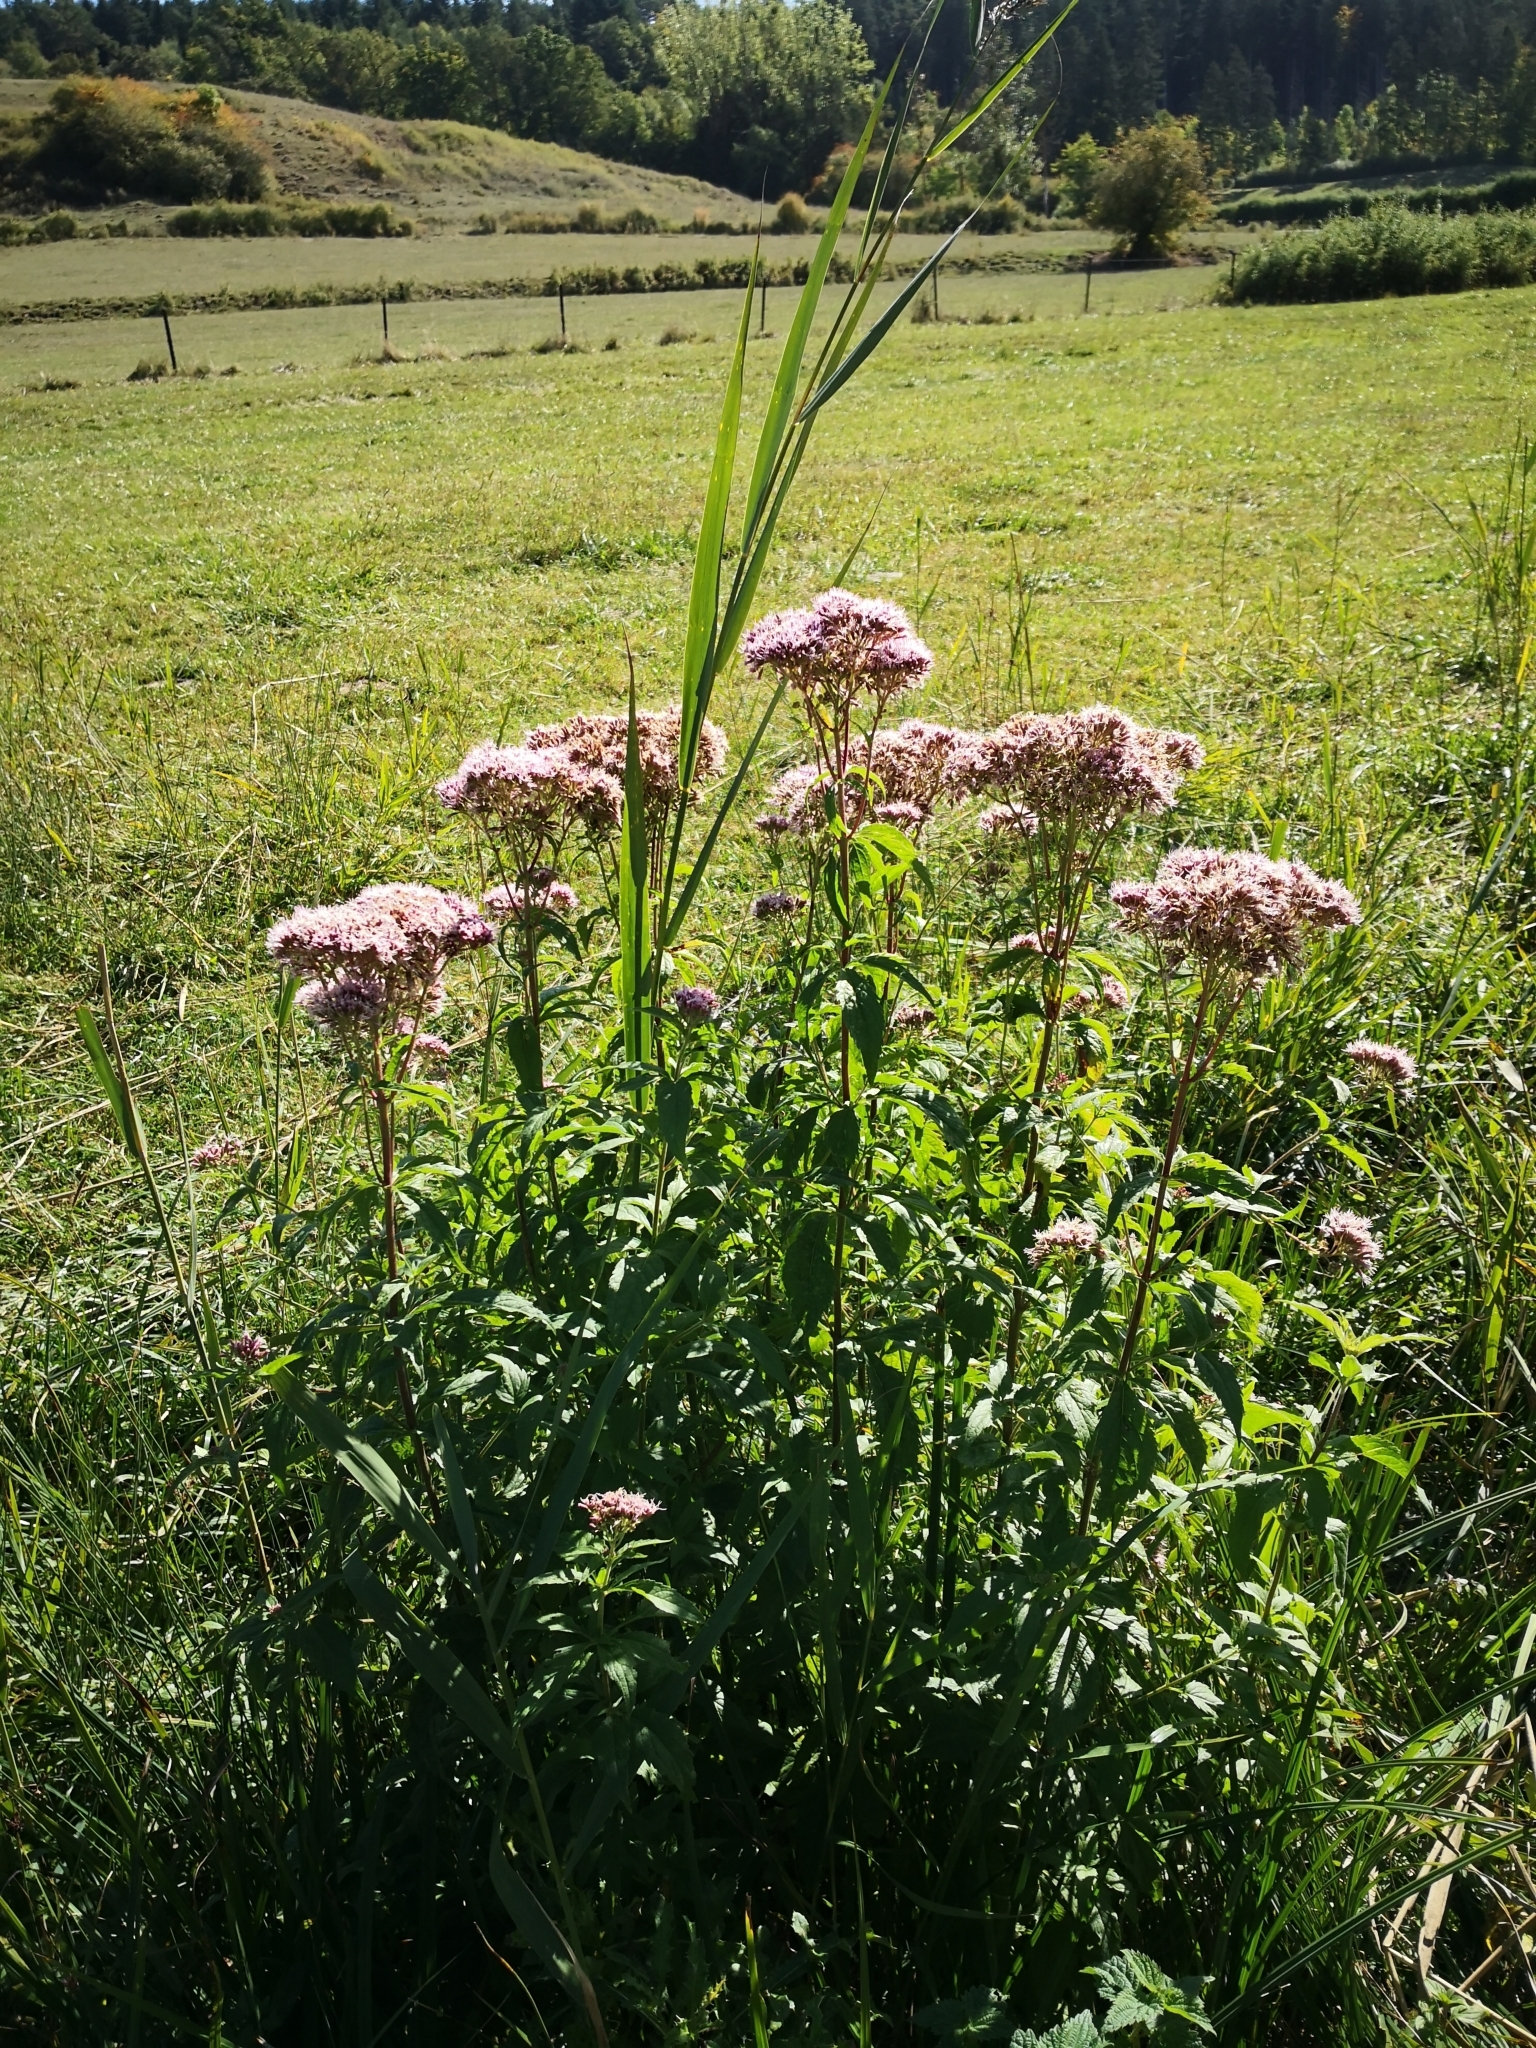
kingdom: Plantae
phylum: Tracheophyta
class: Magnoliopsida
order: Asterales
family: Asteraceae
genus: Eupatorium
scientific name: Eupatorium cannabinum
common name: Hemp-agrimony
